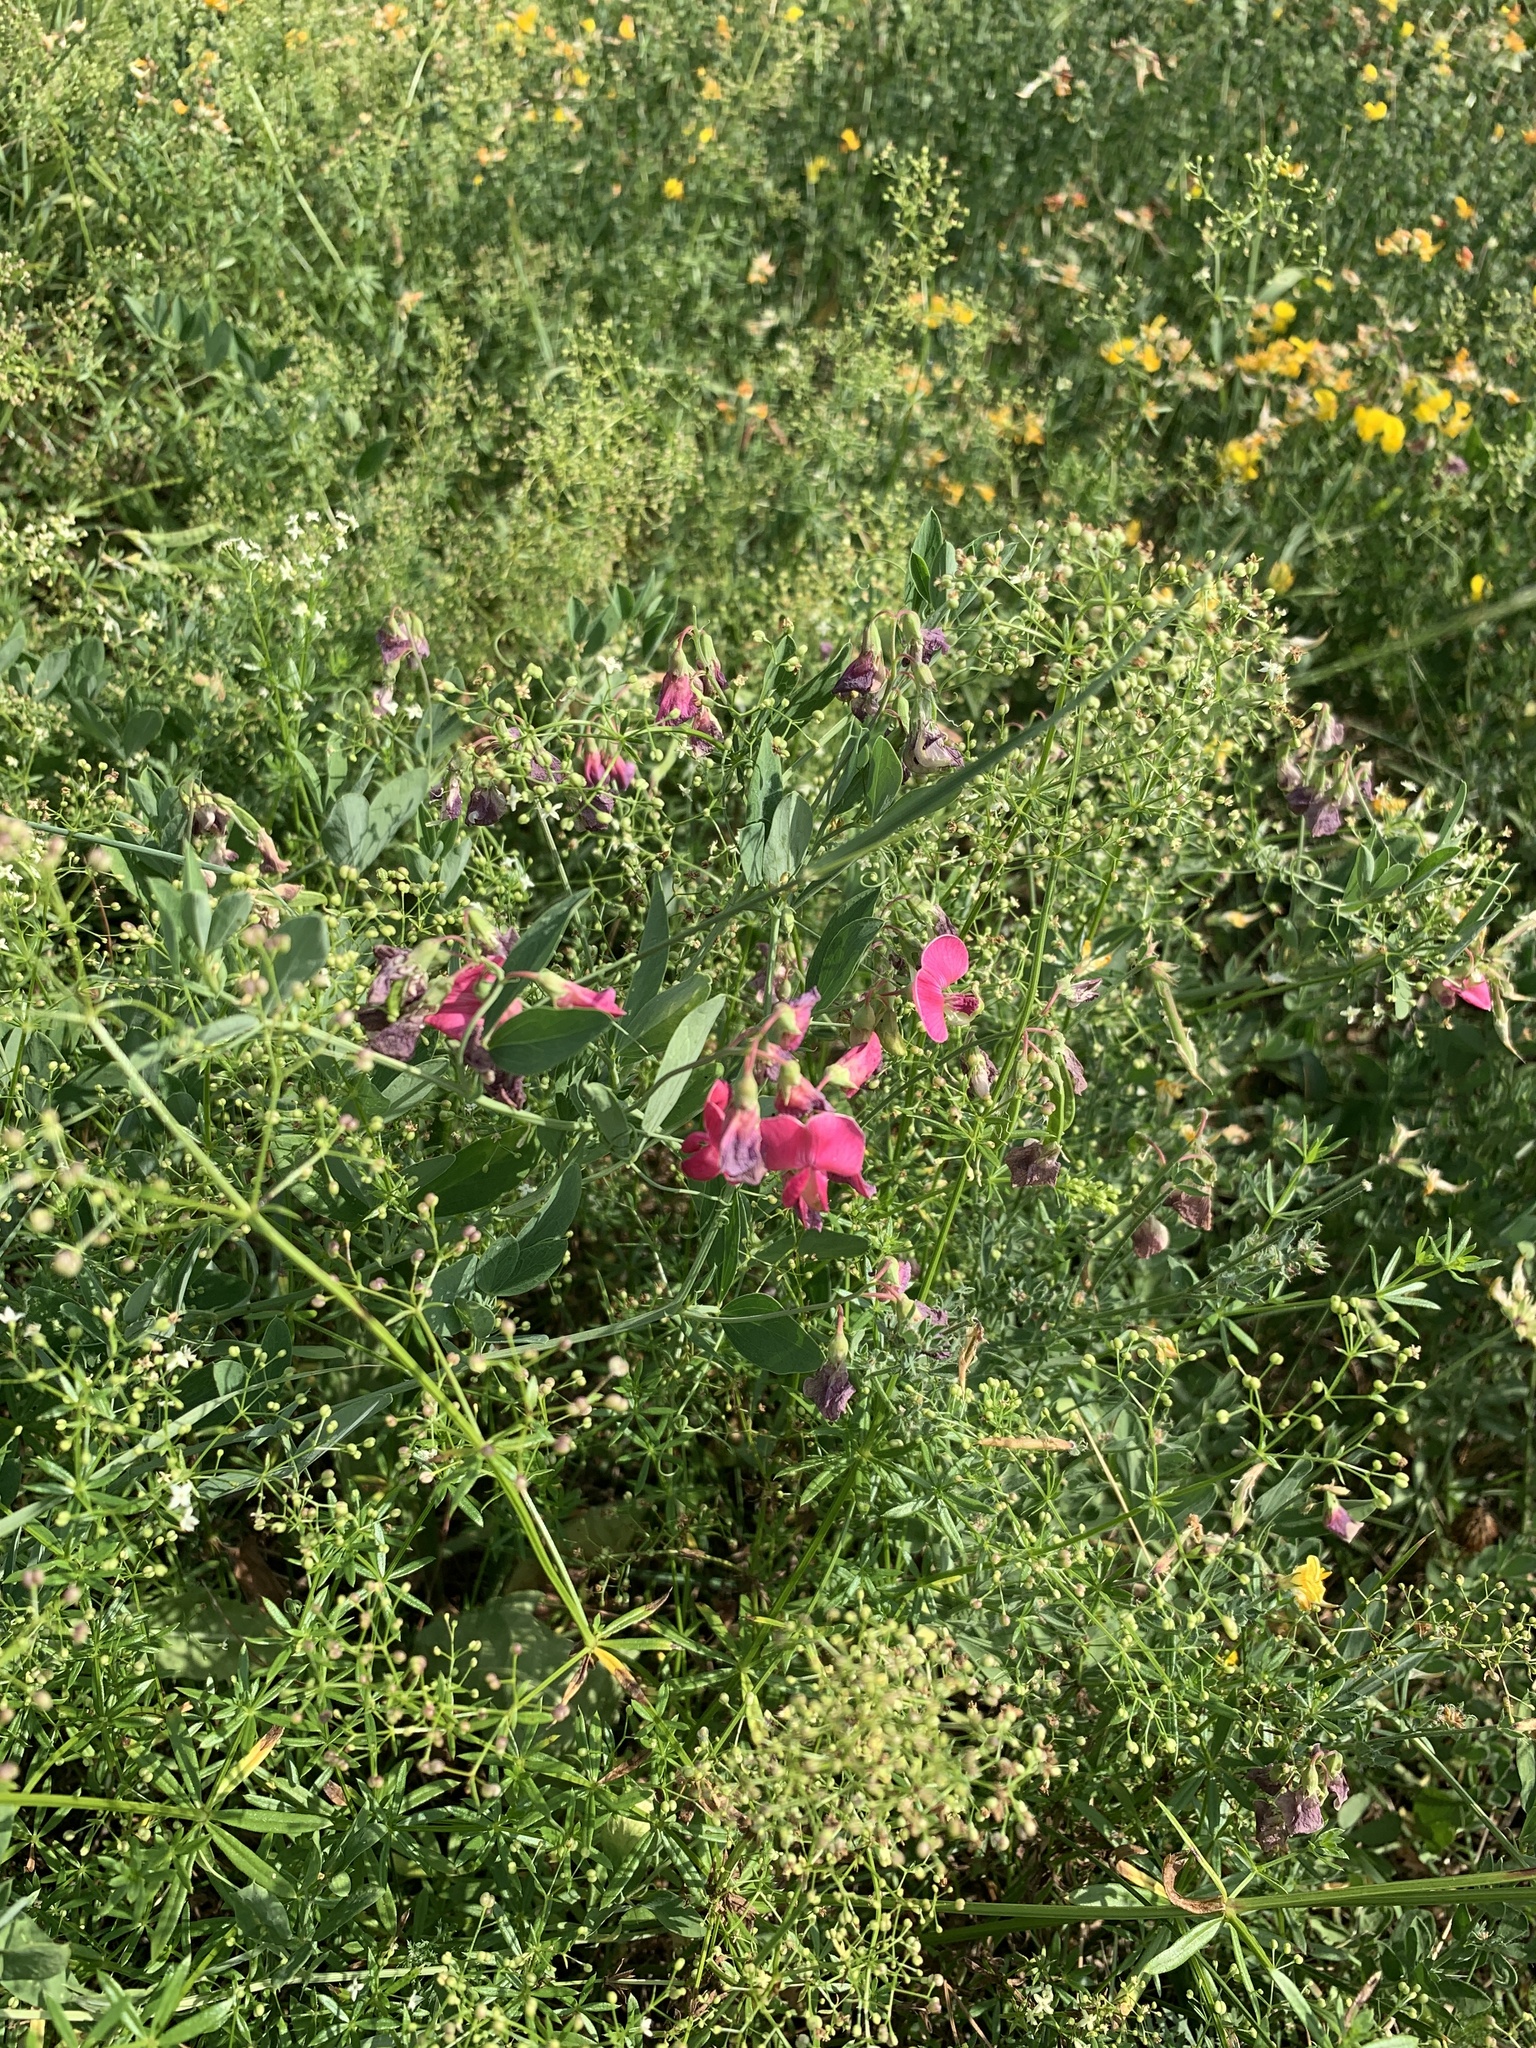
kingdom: Plantae
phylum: Tracheophyta
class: Magnoliopsida
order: Fabales
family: Fabaceae
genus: Lathyrus
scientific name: Lathyrus tuberosus
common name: Tuberous pea
